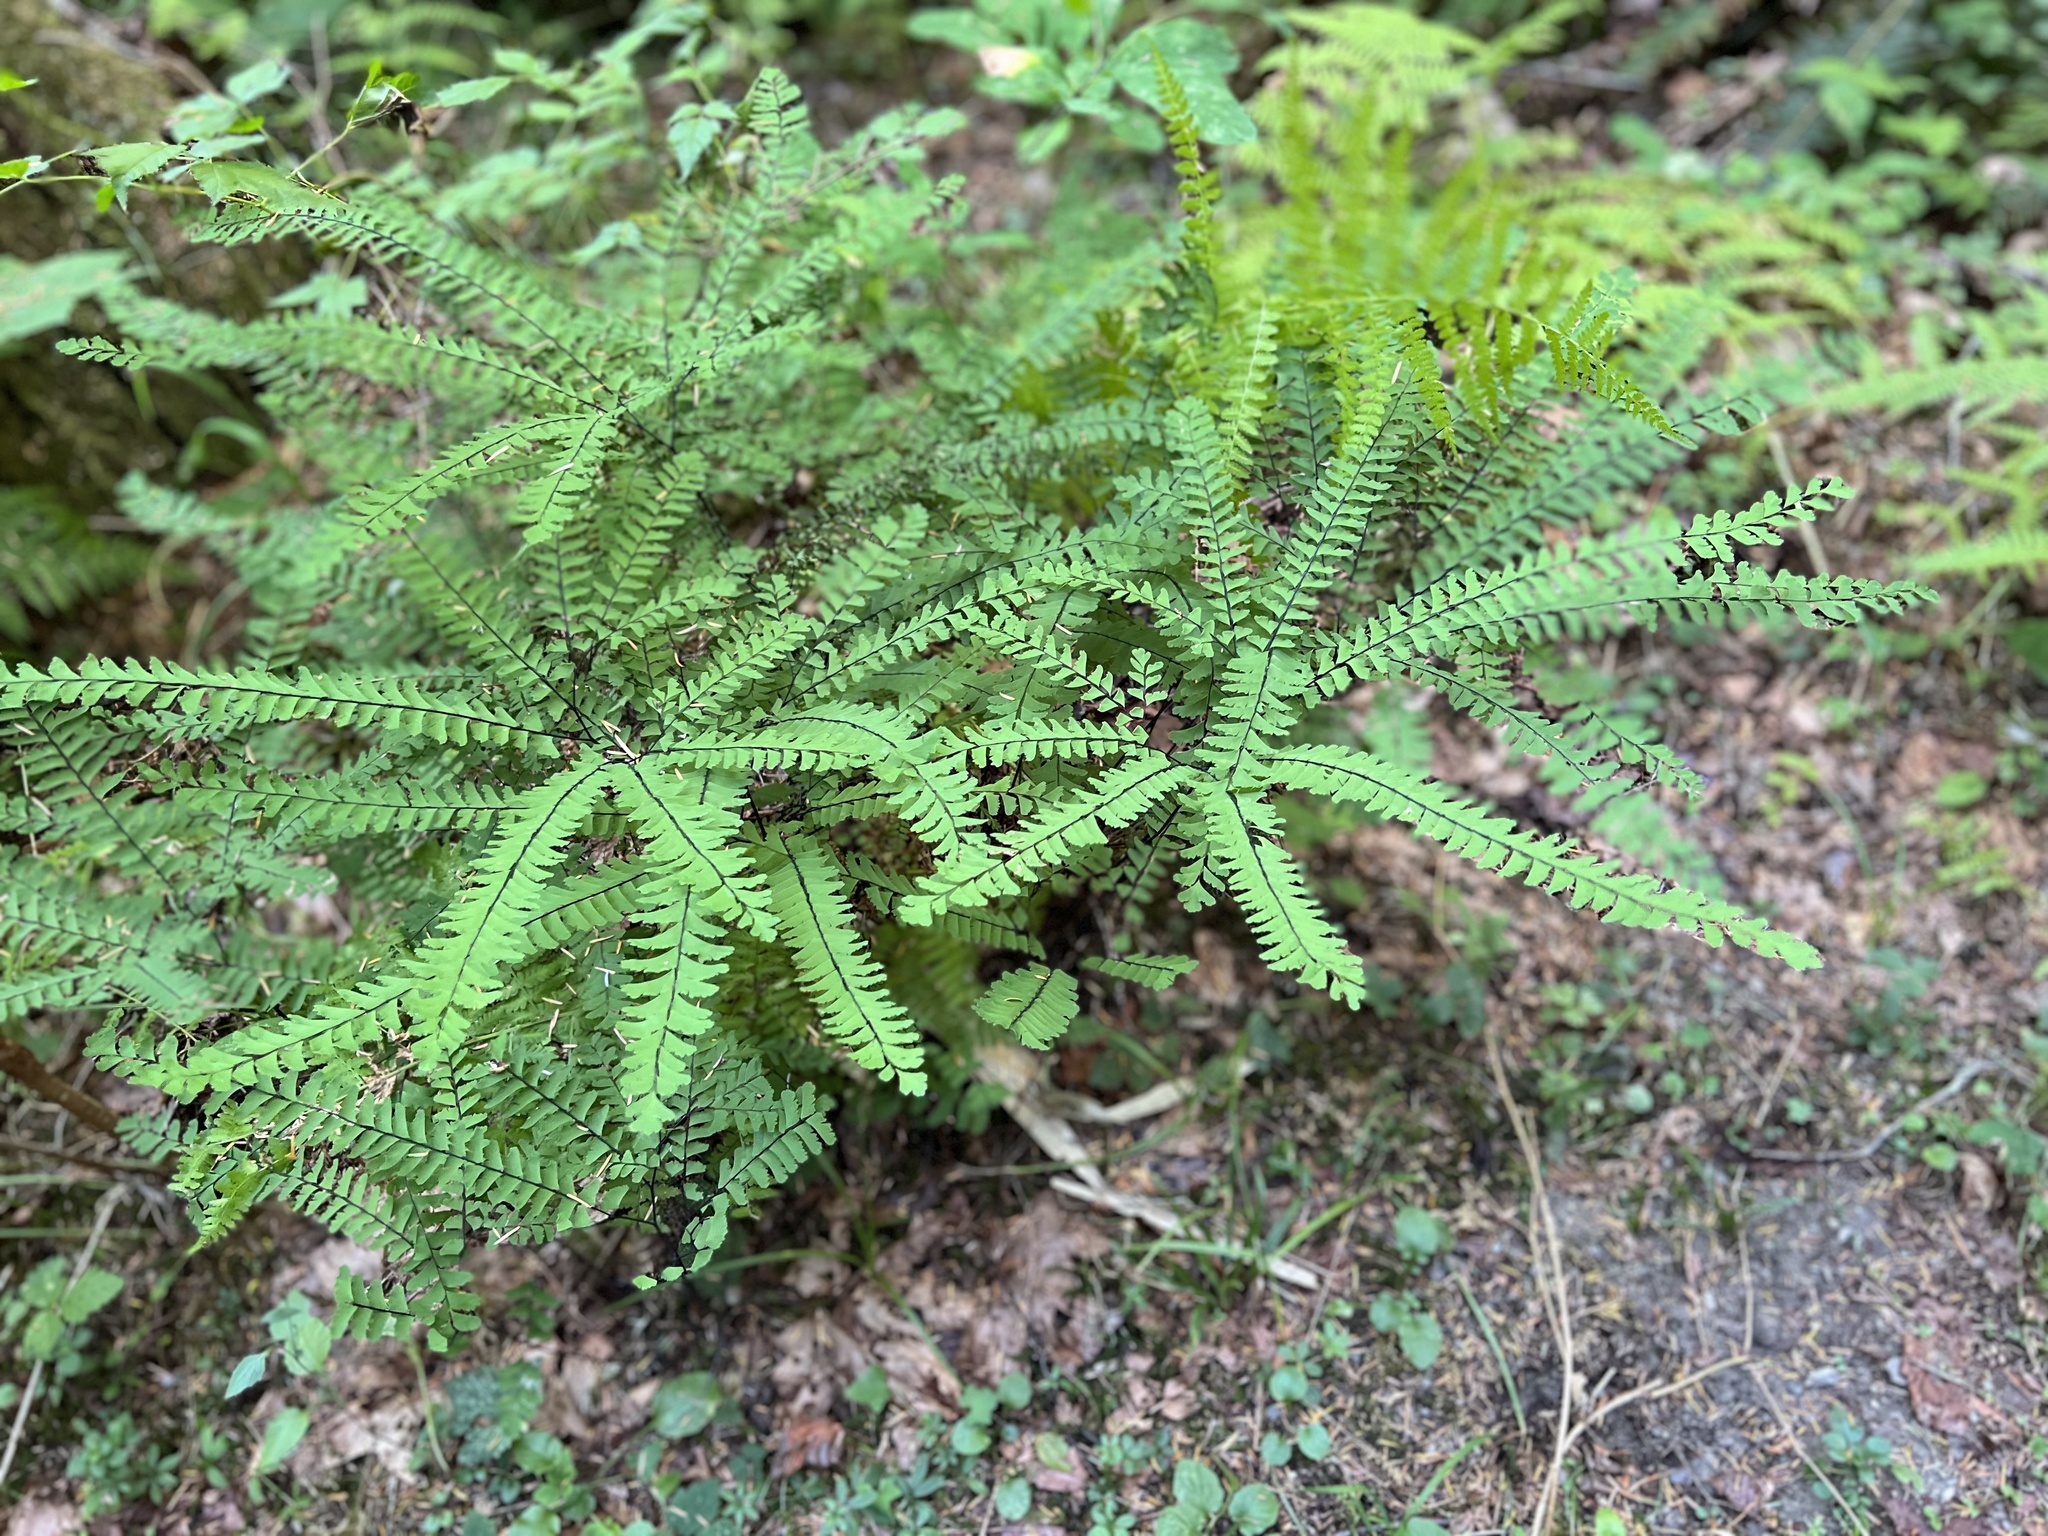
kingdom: Plantae
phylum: Tracheophyta
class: Polypodiopsida
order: Polypodiales
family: Pteridaceae
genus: Adiantum
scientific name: Adiantum aleuticum
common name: Aleutian maidenhair fern
